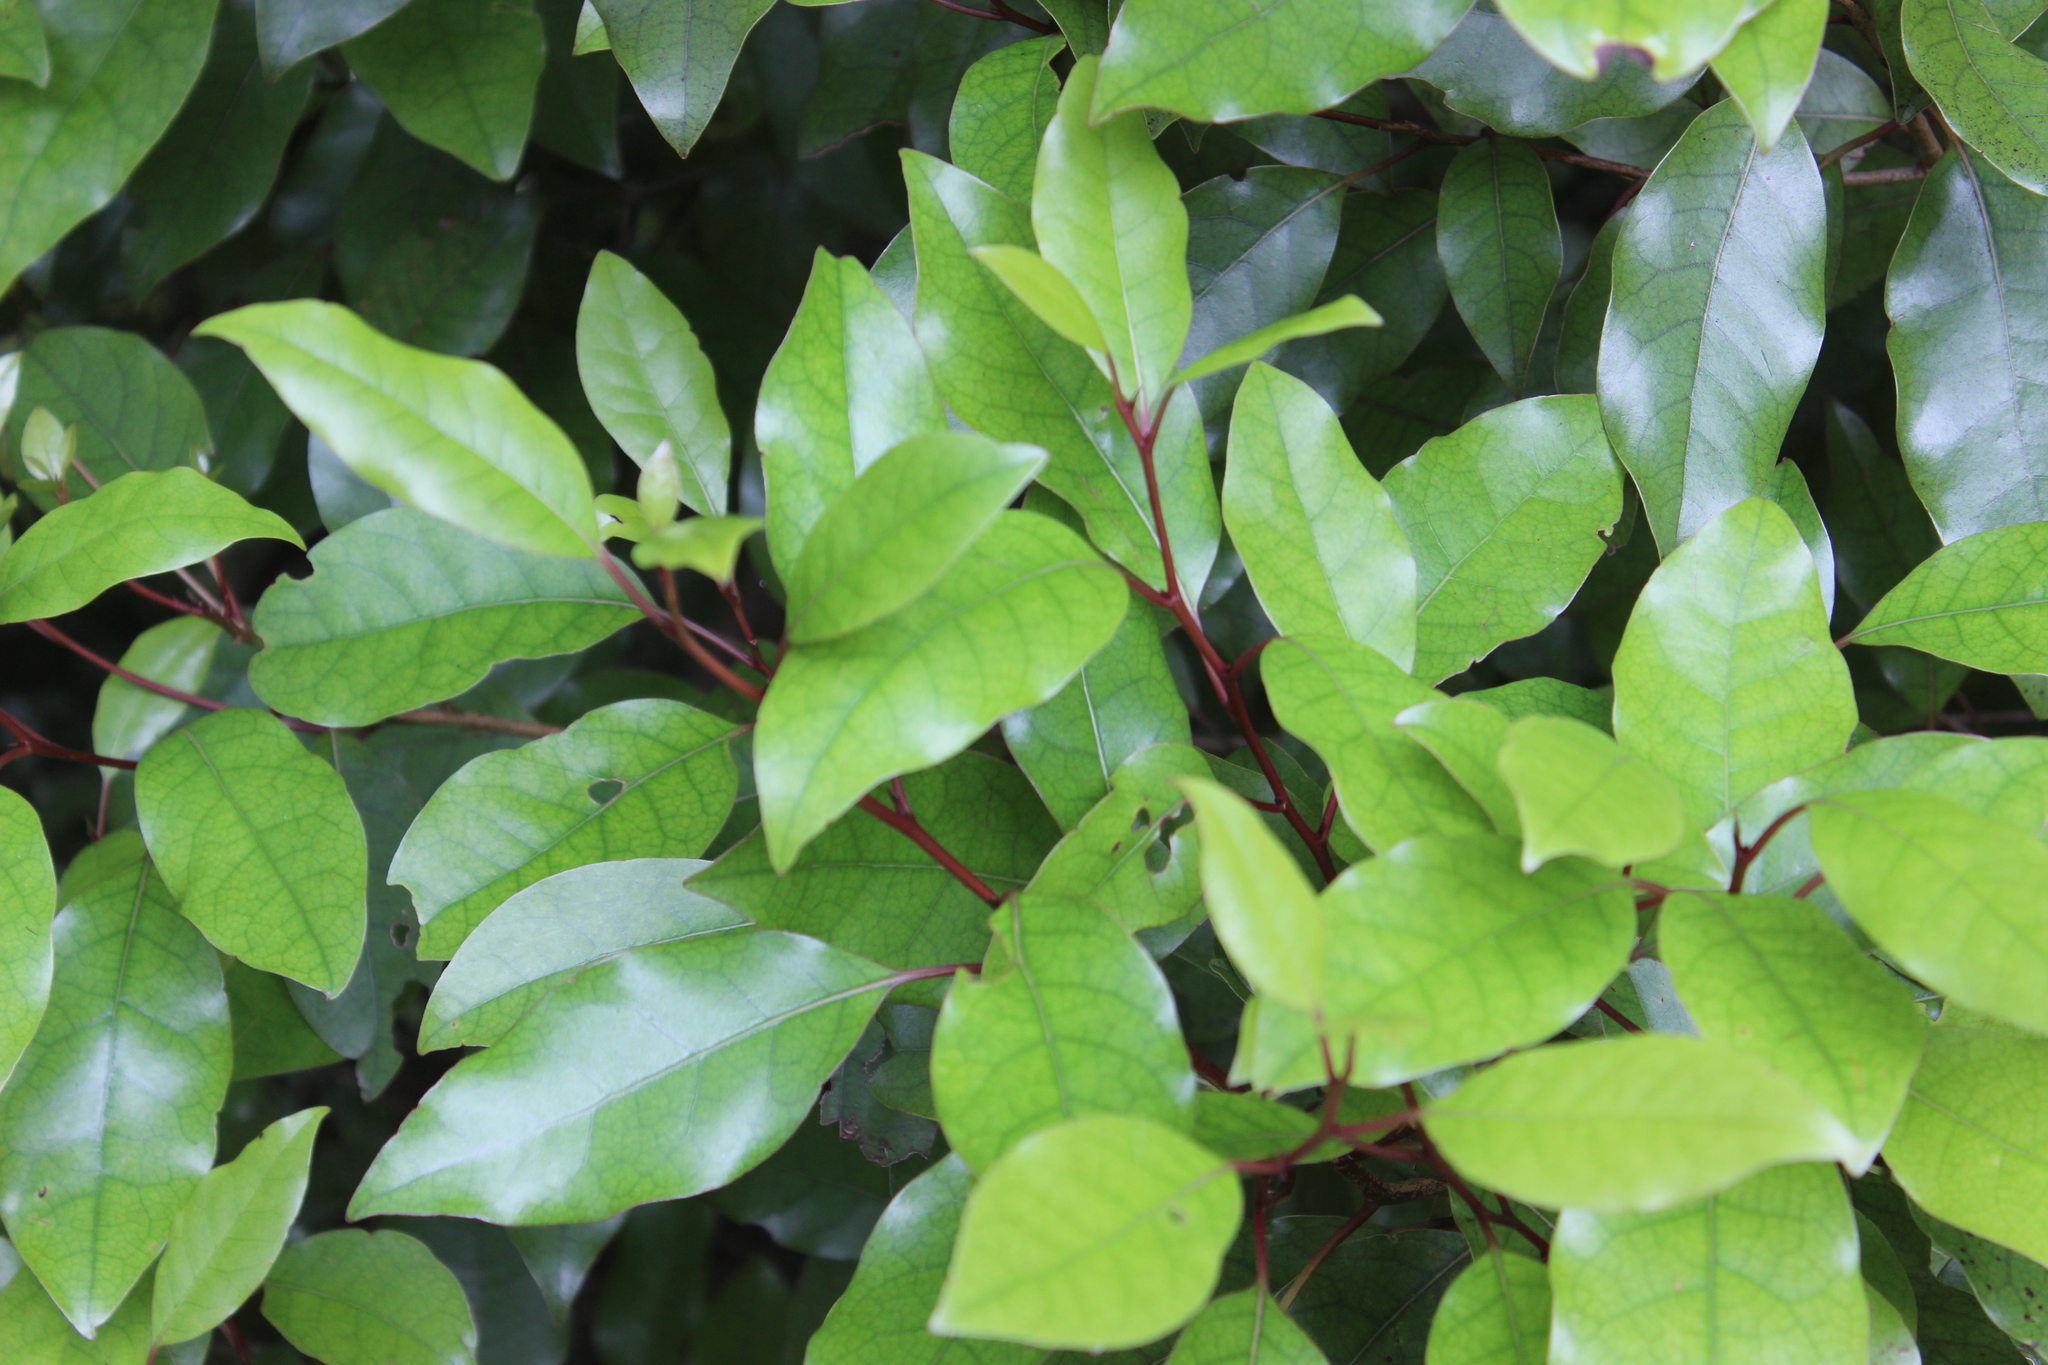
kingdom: Plantae
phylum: Tracheophyta
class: Magnoliopsida
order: Laurales
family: Lauraceae
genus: Litsea
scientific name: Litsea calicaris
